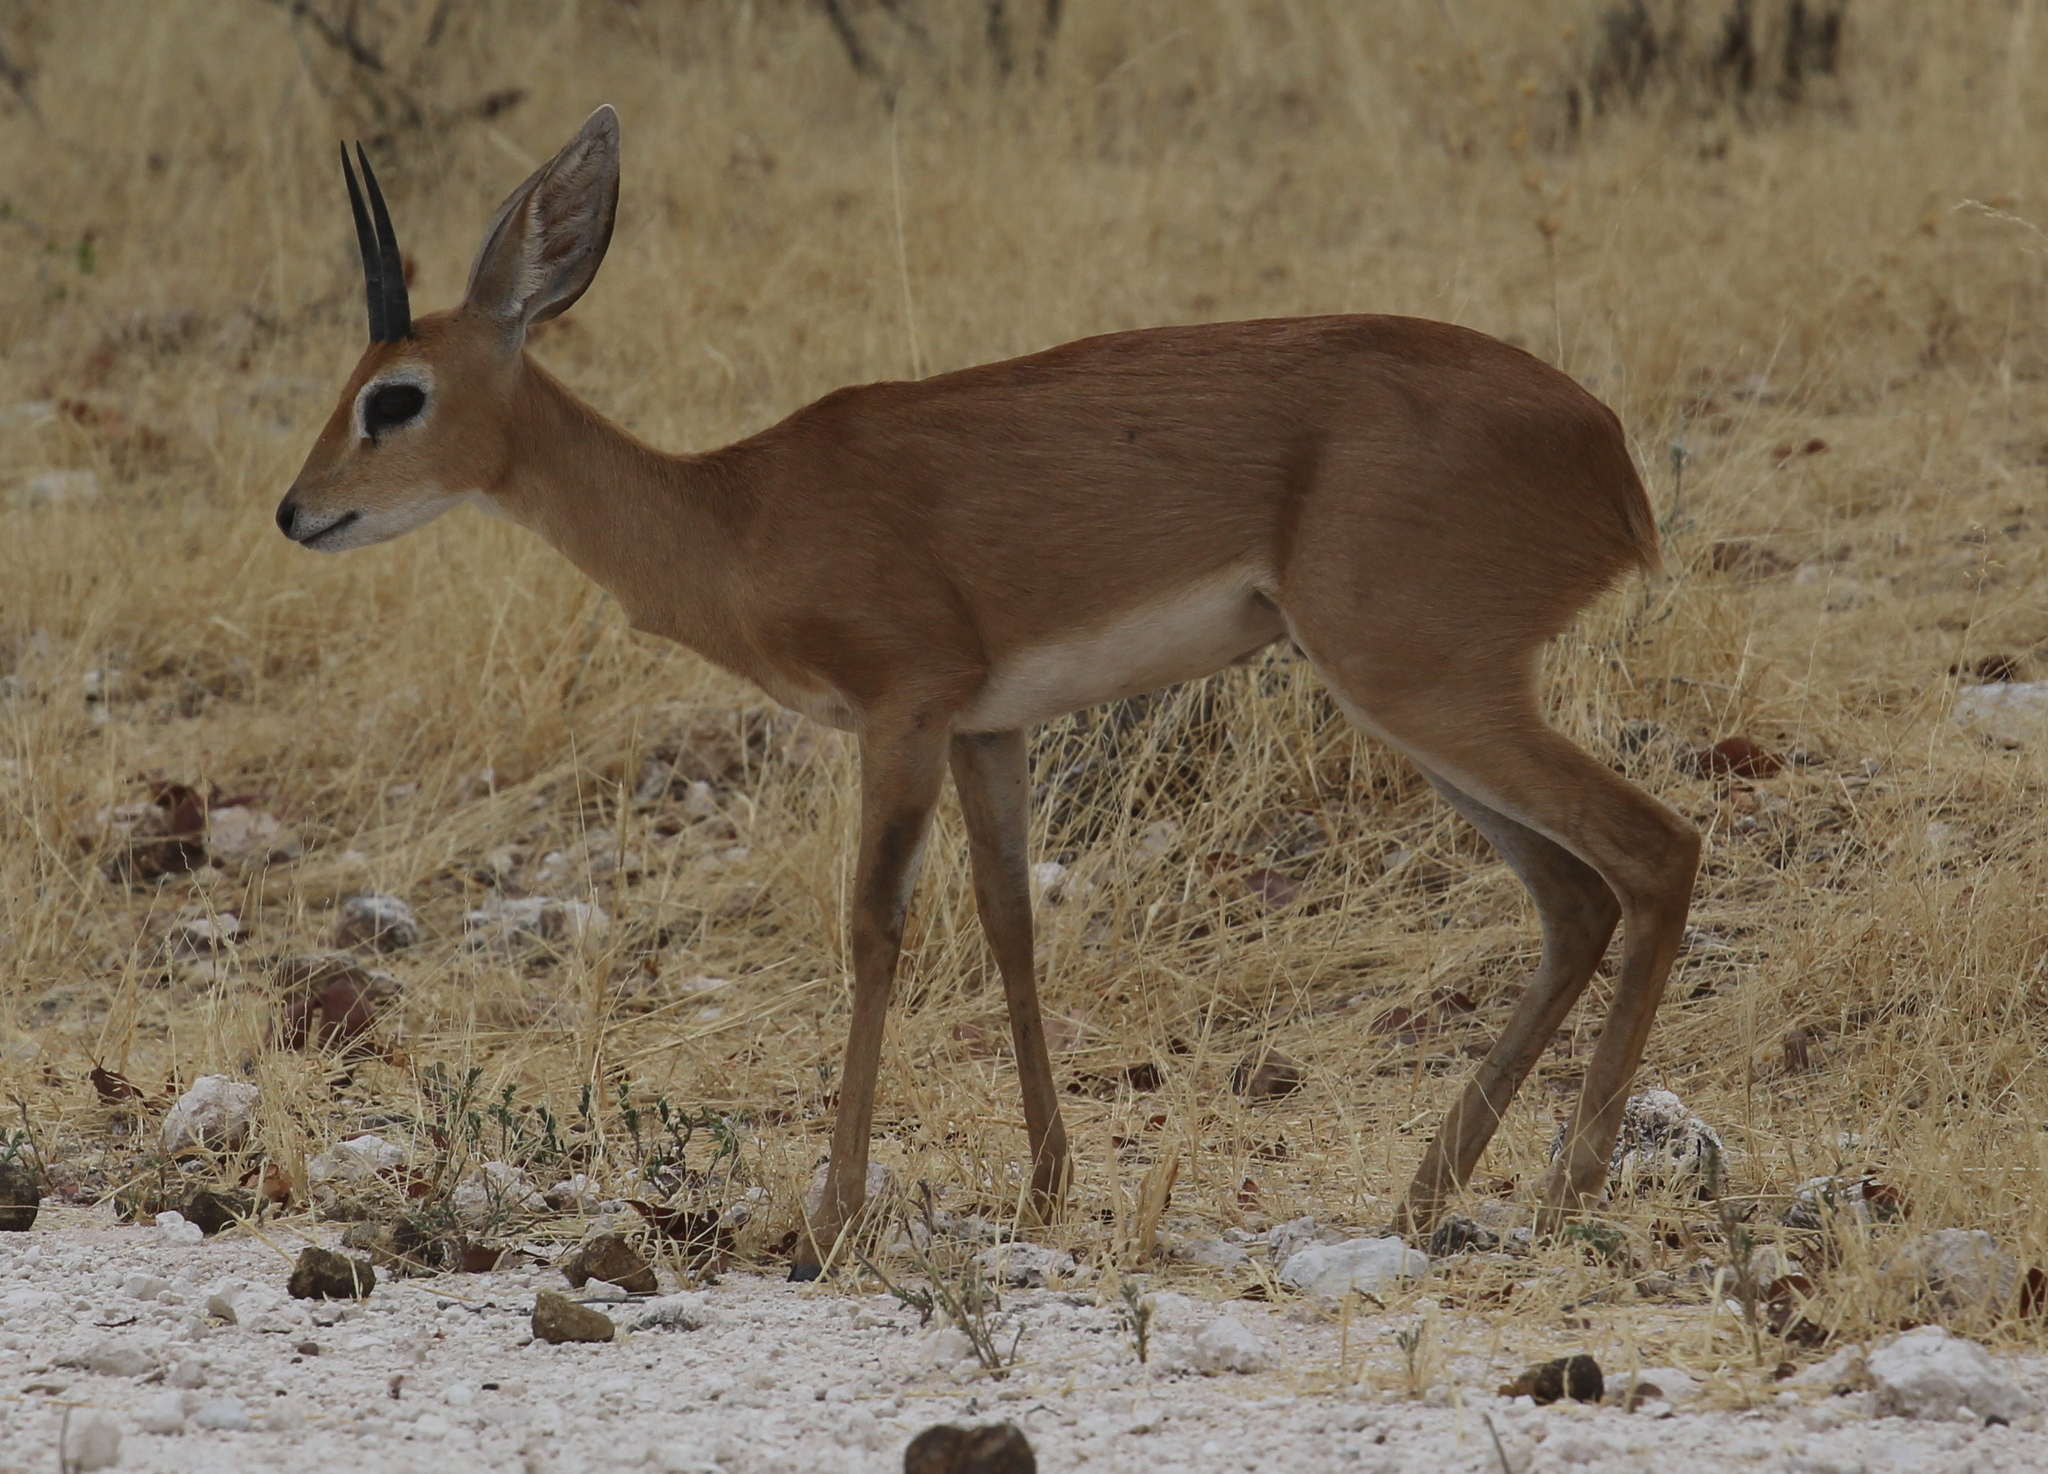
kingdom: Animalia
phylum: Chordata
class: Mammalia
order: Artiodactyla
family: Bovidae
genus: Raphicerus
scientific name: Raphicerus campestris
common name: Steenbok
